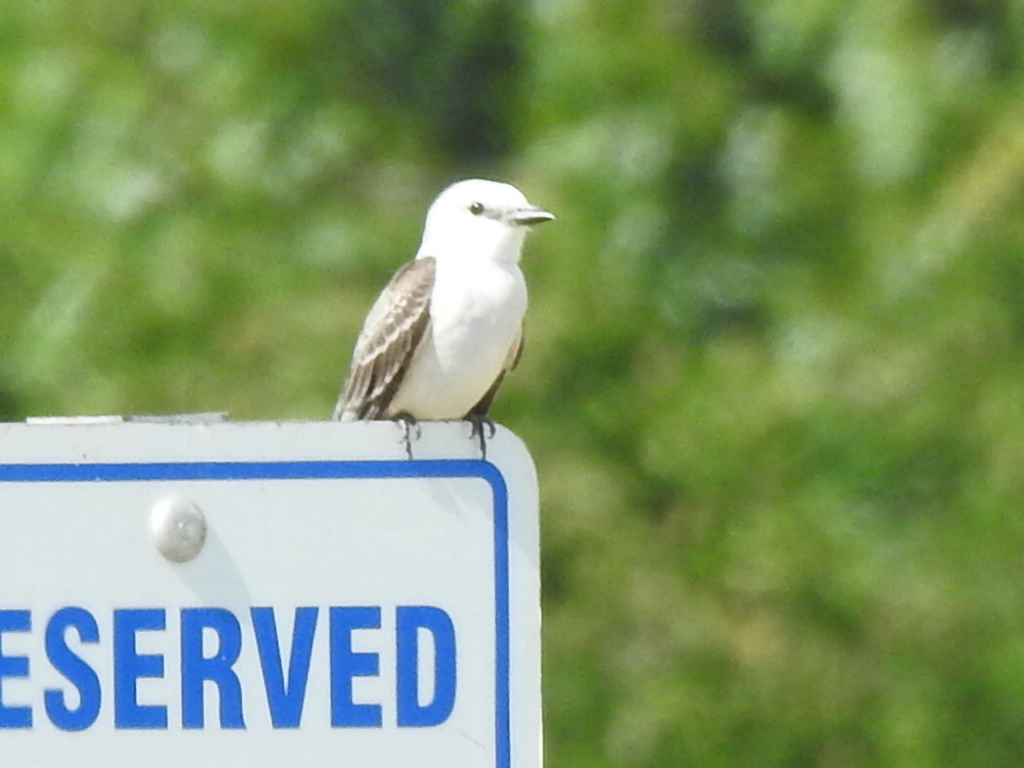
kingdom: Animalia
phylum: Chordata
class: Aves
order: Passeriformes
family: Tyrannidae
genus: Tyrannus
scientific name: Tyrannus forficatus
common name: Scissor-tailed flycatcher
